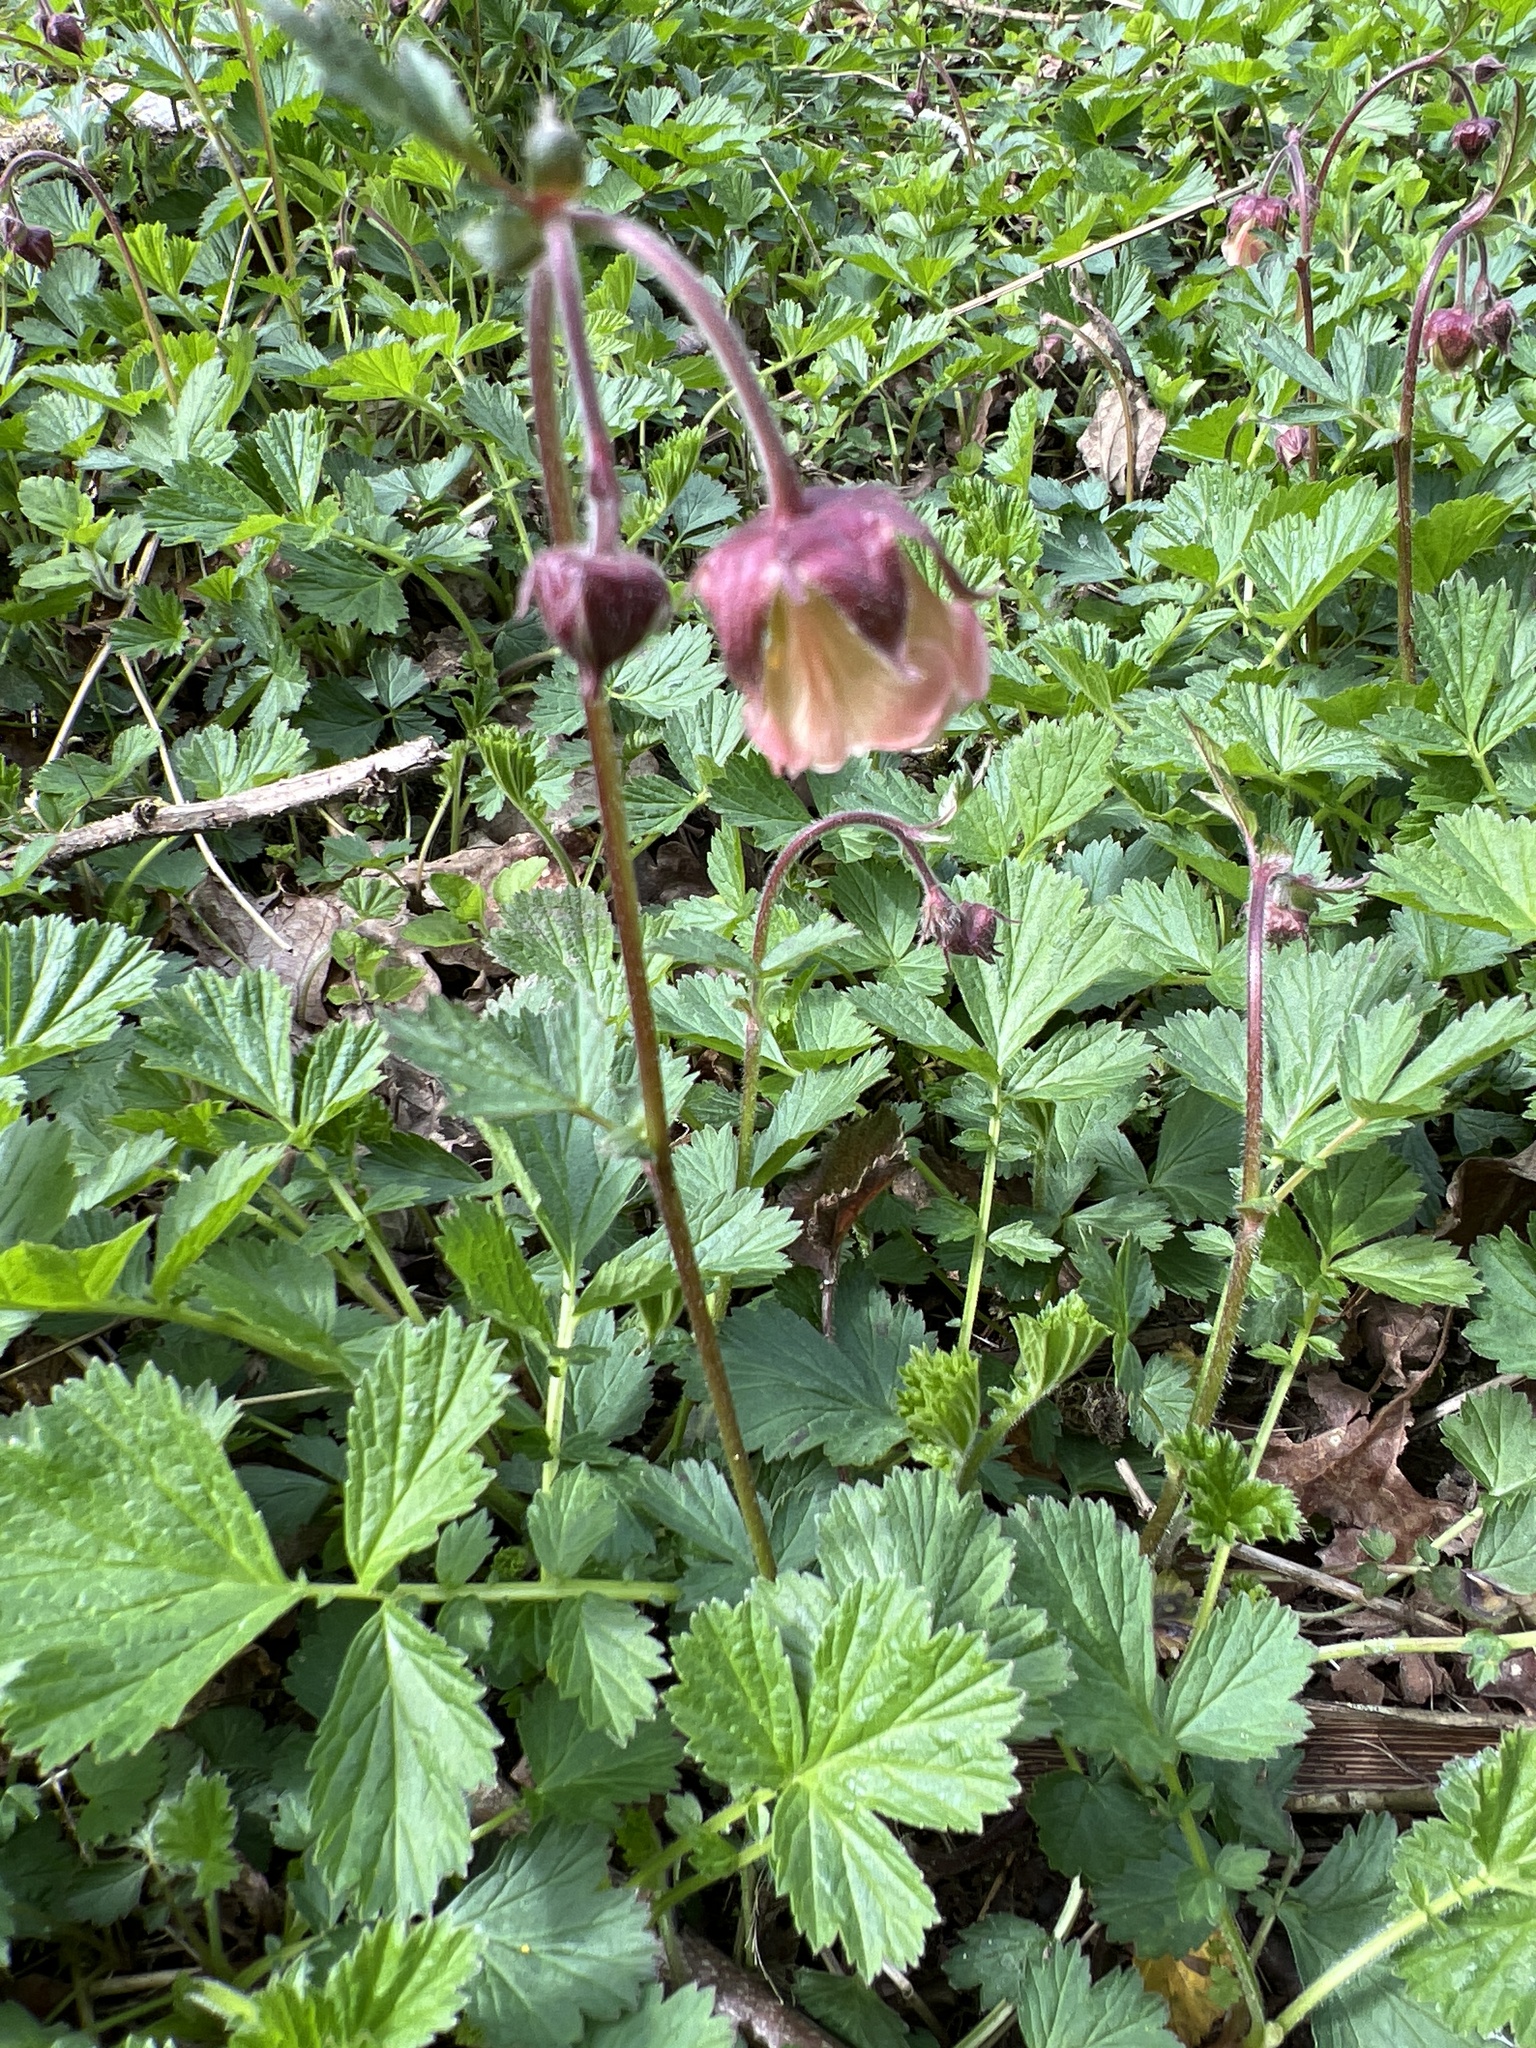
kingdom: Plantae
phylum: Tracheophyta
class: Magnoliopsida
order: Rosales
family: Rosaceae
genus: Geum
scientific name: Geum rivale
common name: Water avens
